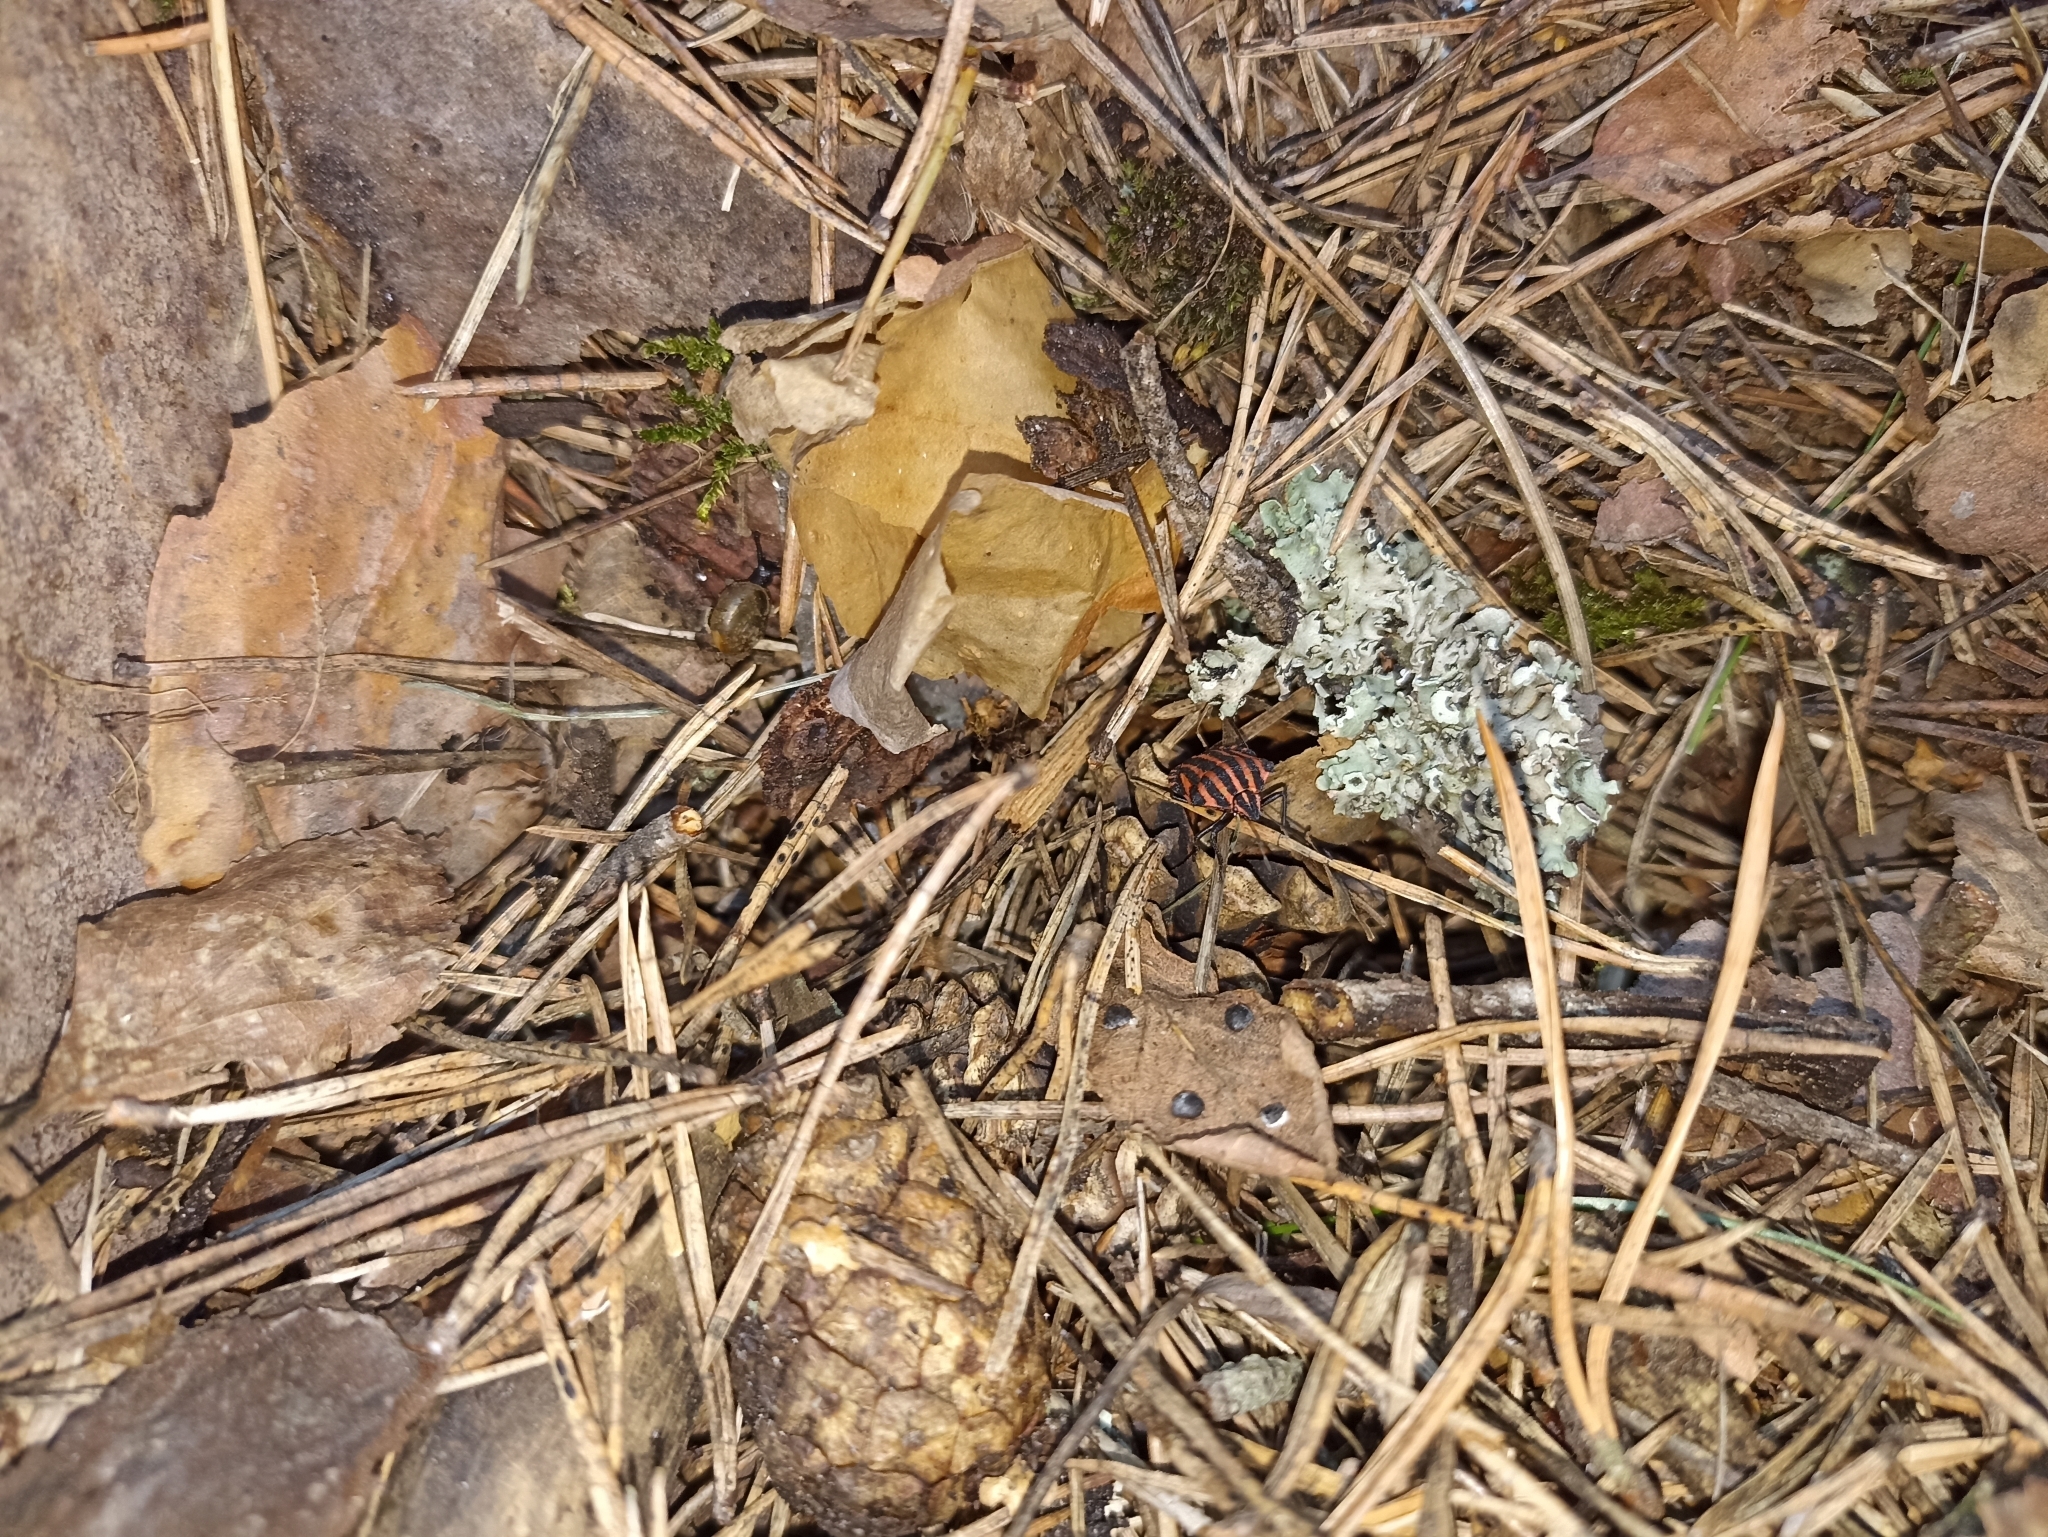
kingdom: Animalia
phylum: Arthropoda
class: Insecta
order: Hemiptera
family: Pentatomidae
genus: Graphosoma
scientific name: Graphosoma italicum
